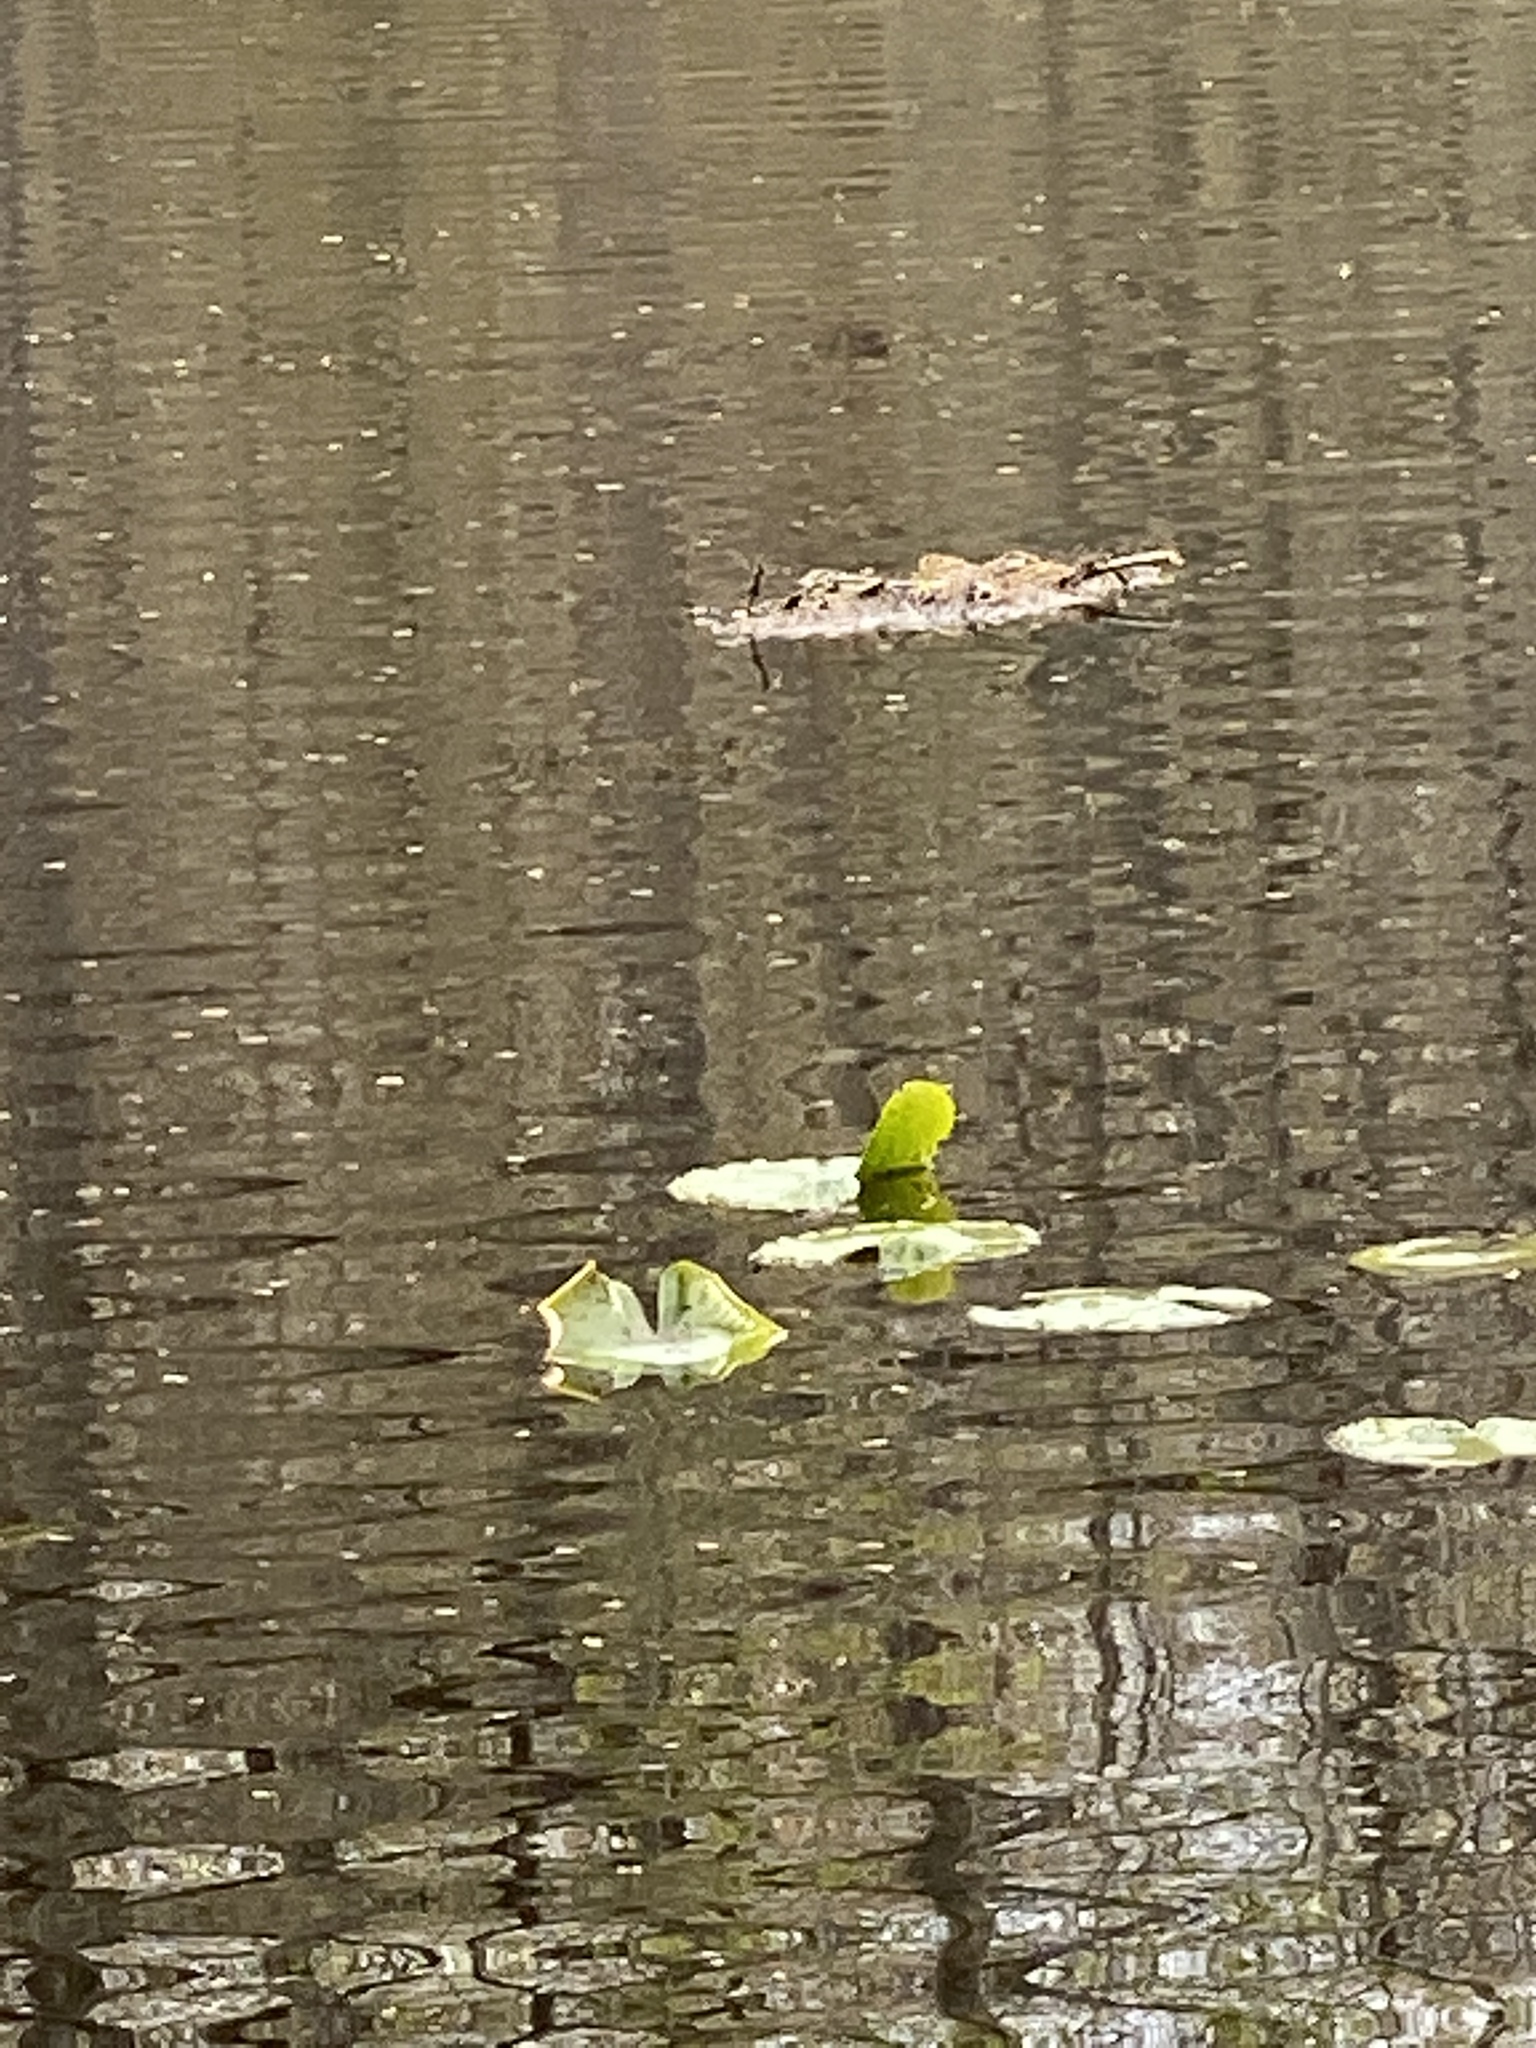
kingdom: Plantae
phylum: Tracheophyta
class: Magnoliopsida
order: Nymphaeales
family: Nymphaeaceae
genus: Nuphar
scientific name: Nuphar advena
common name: Spatter-dock
